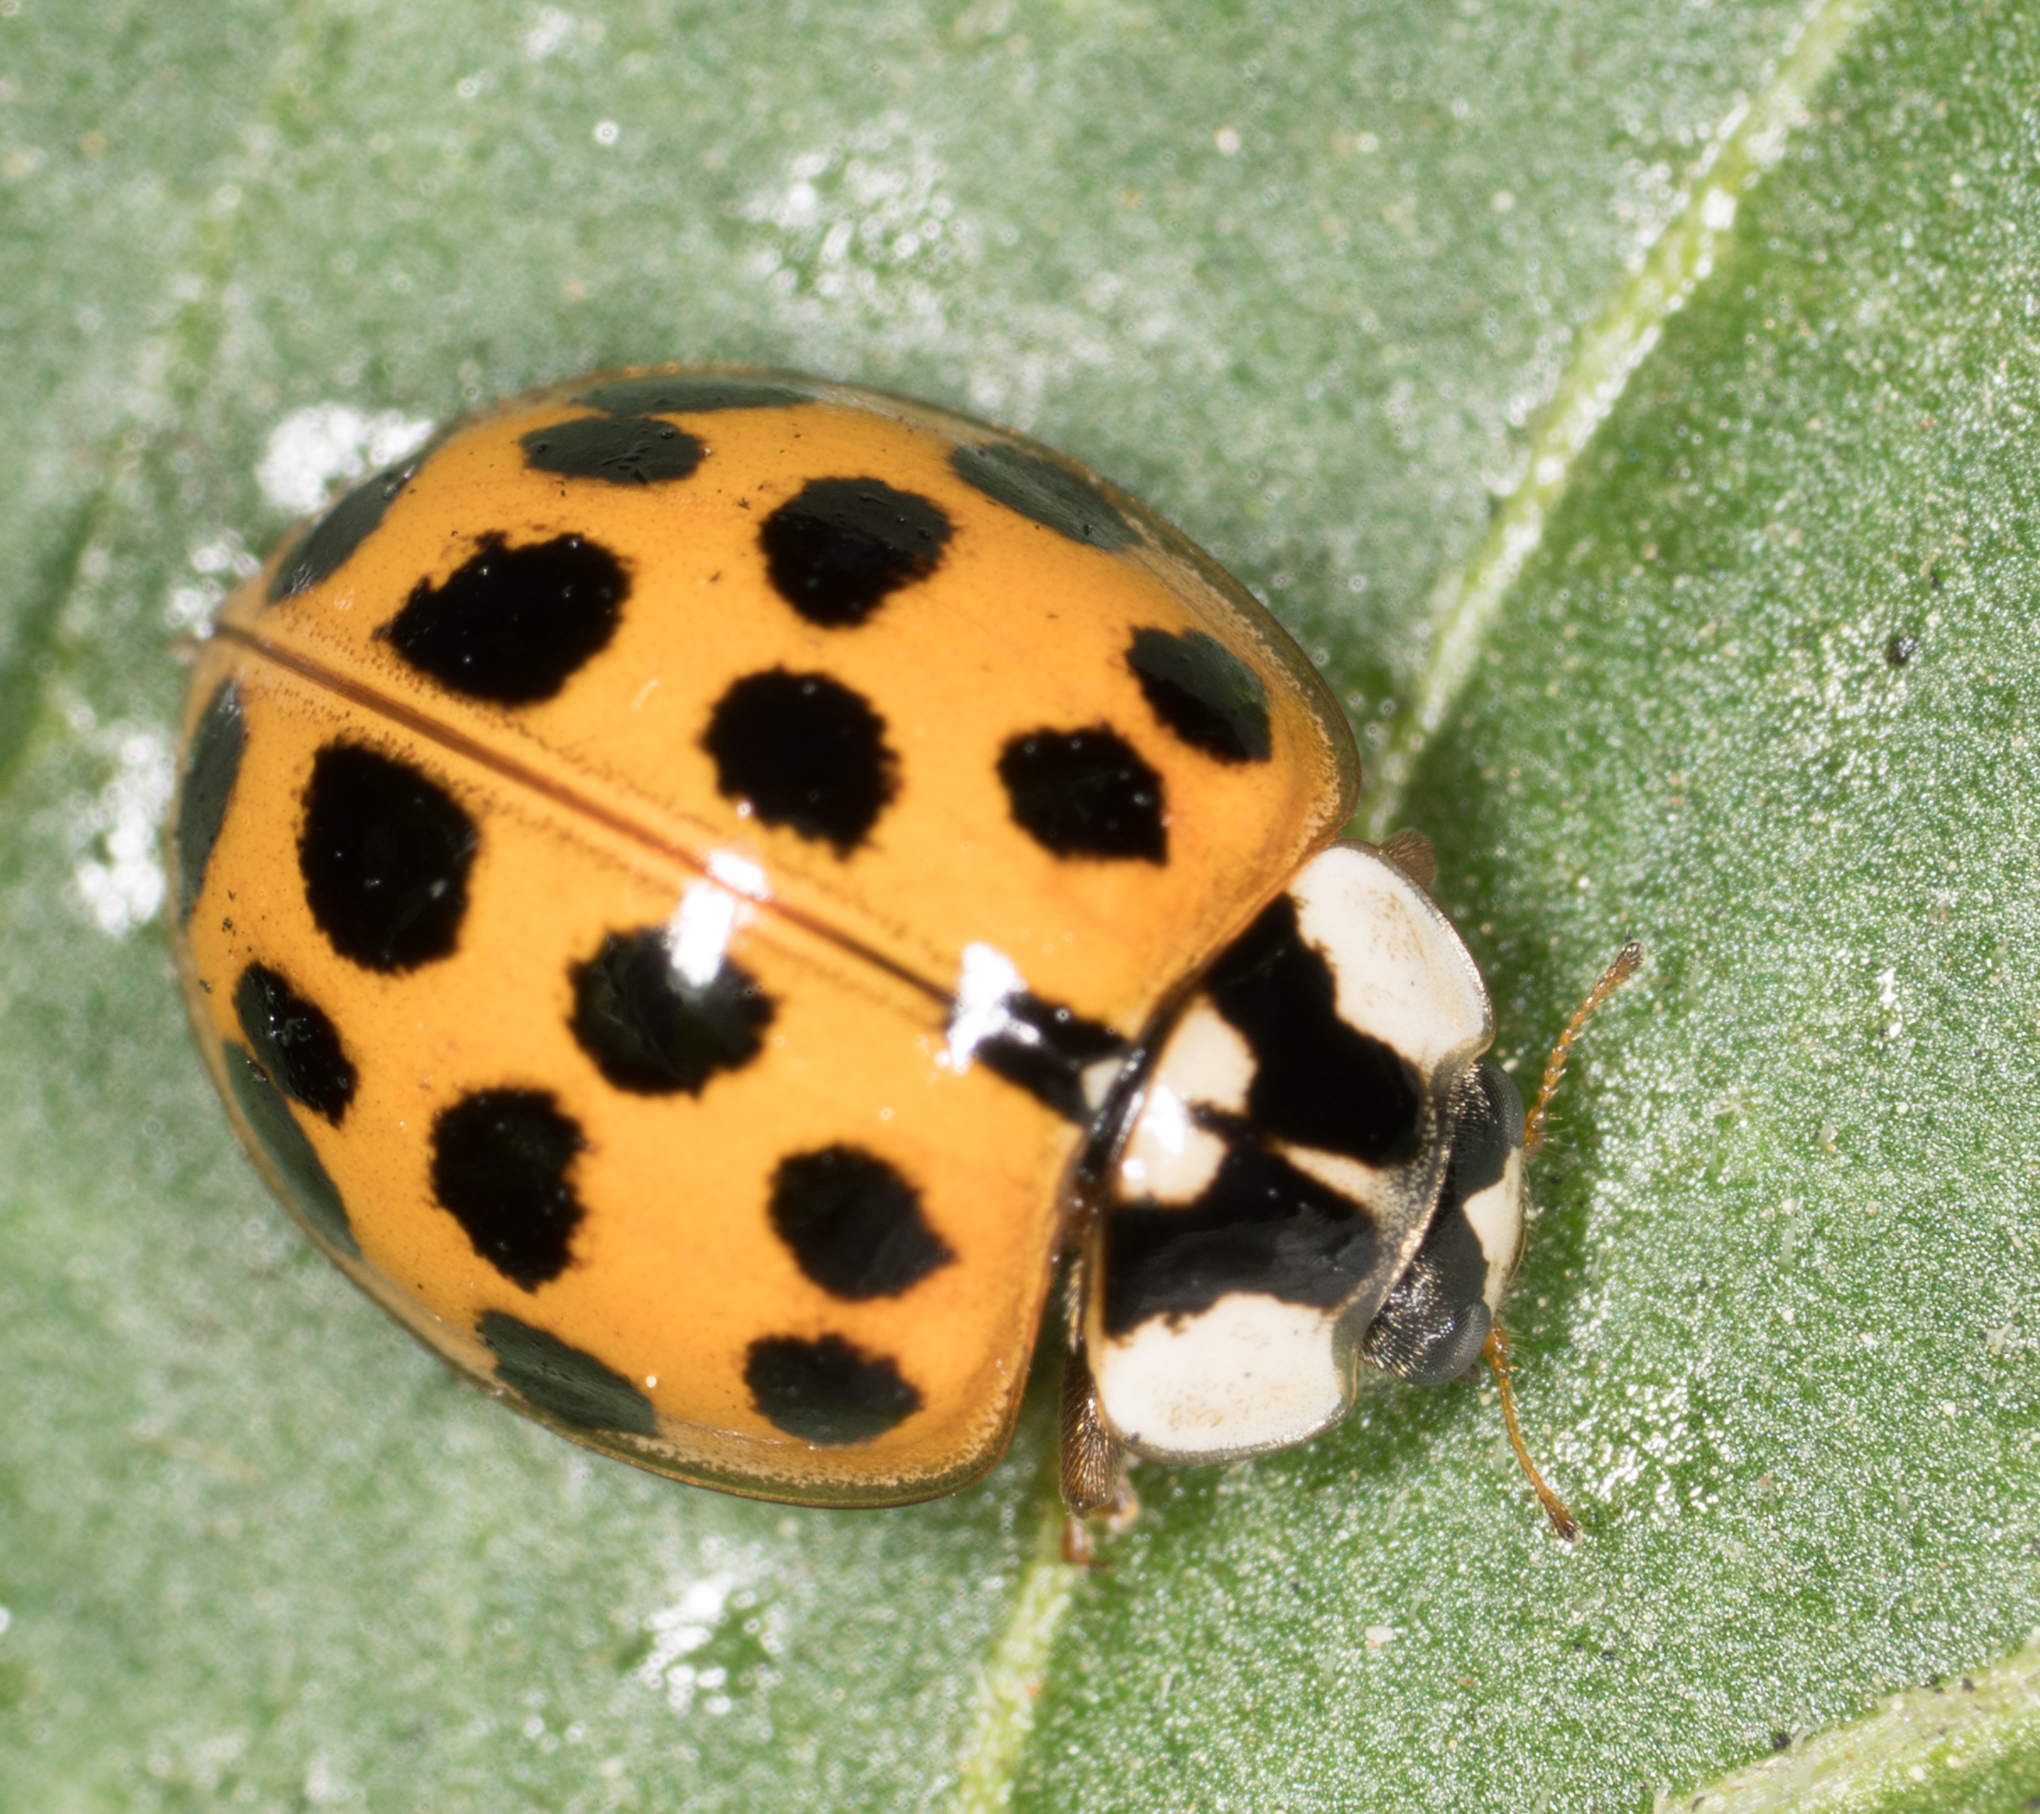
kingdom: Animalia
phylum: Arthropoda
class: Insecta
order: Coleoptera
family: Coccinellidae
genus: Harmonia
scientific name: Harmonia axyridis
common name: Harlequin ladybird
